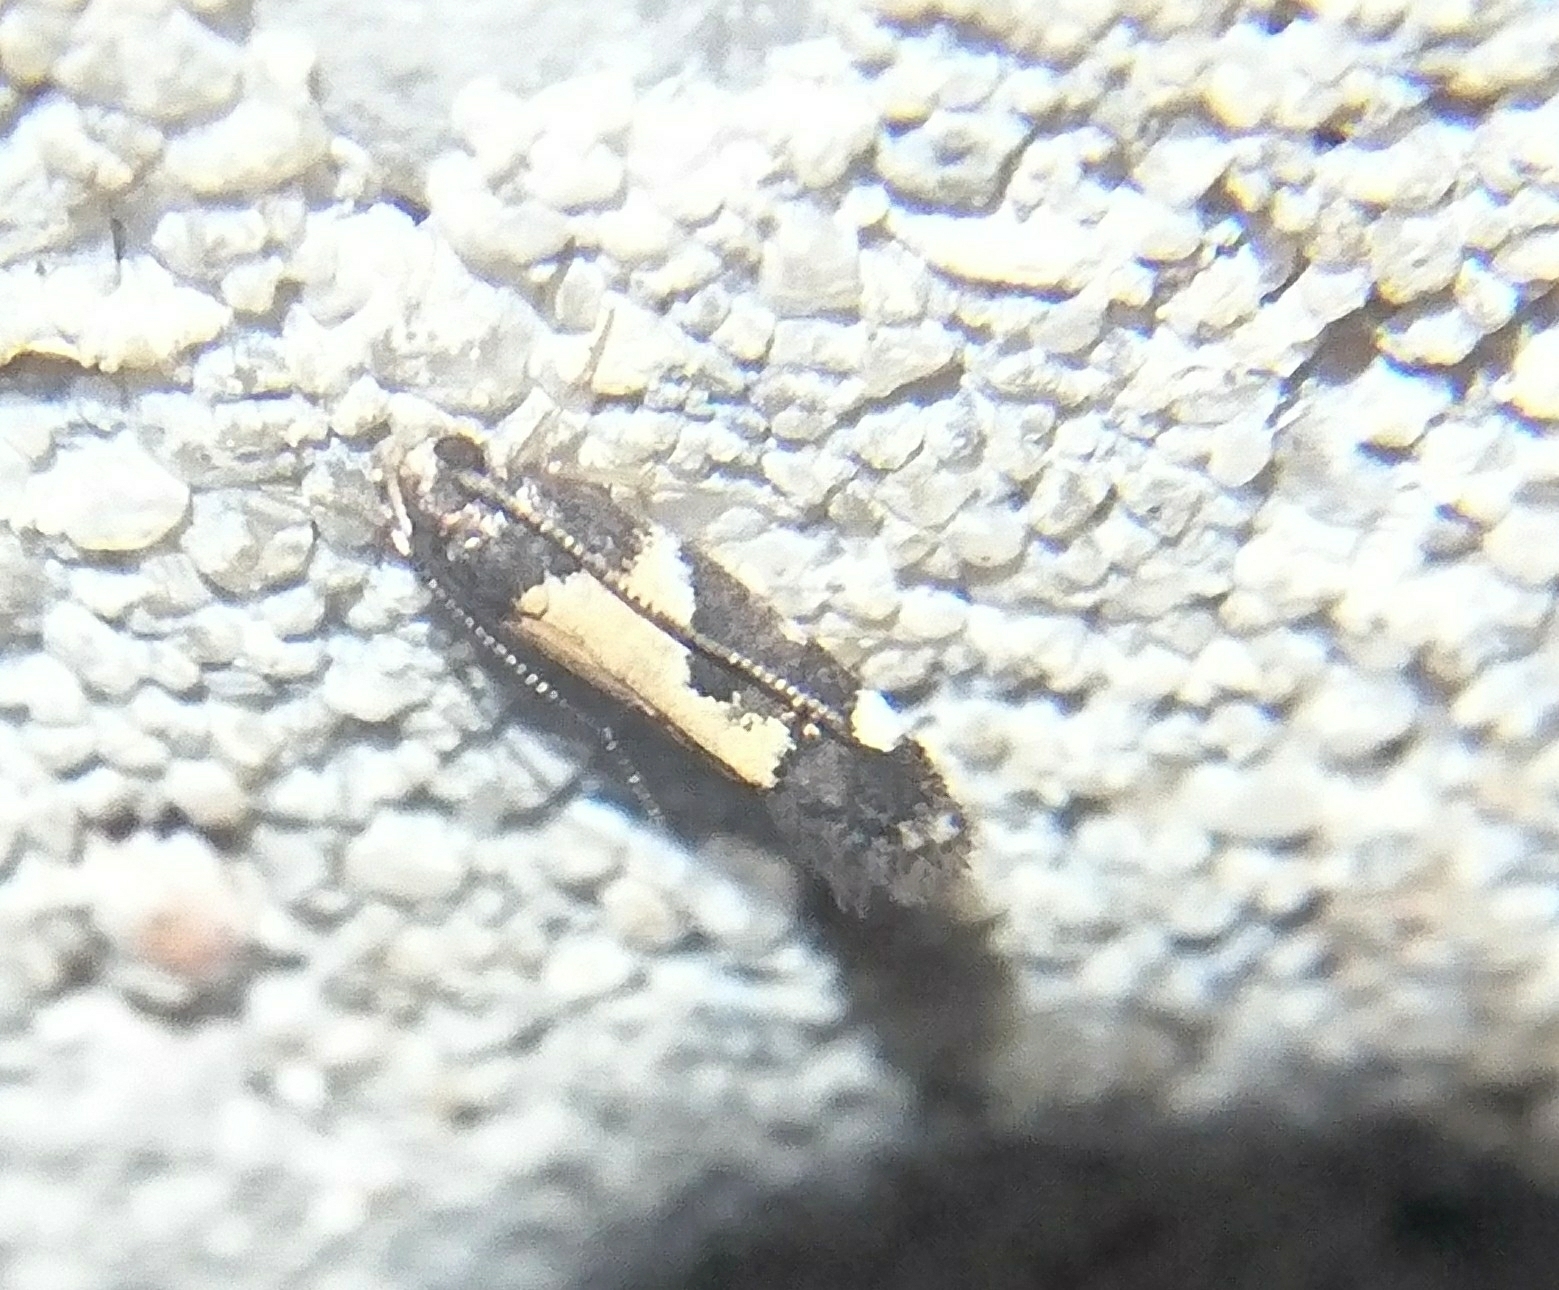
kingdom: Animalia
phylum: Arthropoda
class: Insecta
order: Lepidoptera
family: Gelechiidae
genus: Stegasta
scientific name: Stegasta bosqueella
